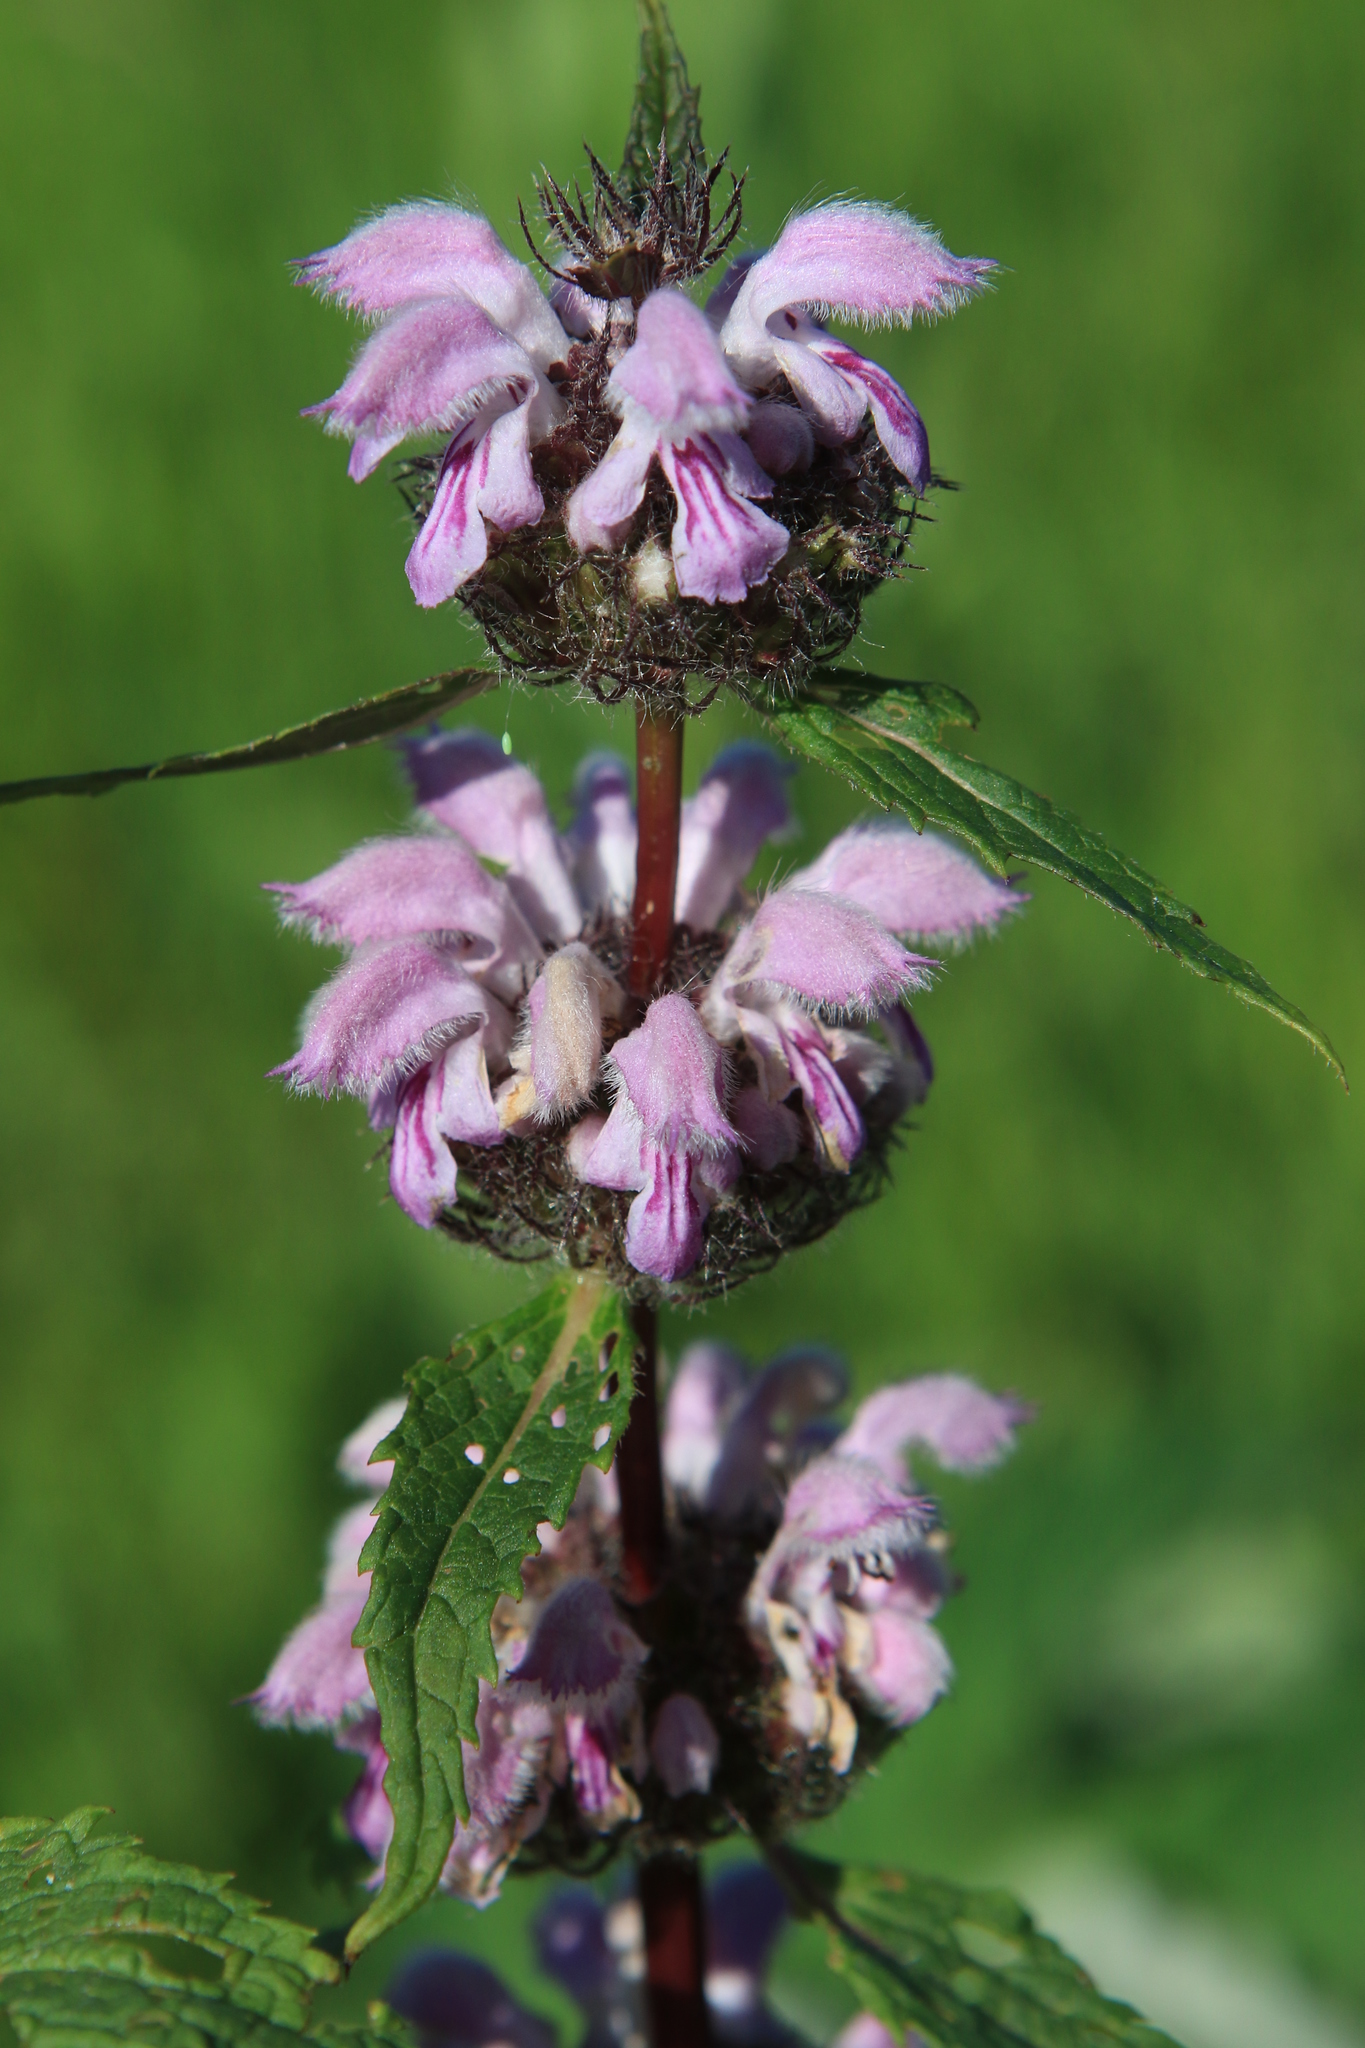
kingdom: Plantae
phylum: Tracheophyta
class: Magnoliopsida
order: Lamiales
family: Lamiaceae
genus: Phlomoides
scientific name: Phlomoides tuberosa
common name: Tuberous jerusalem sage
